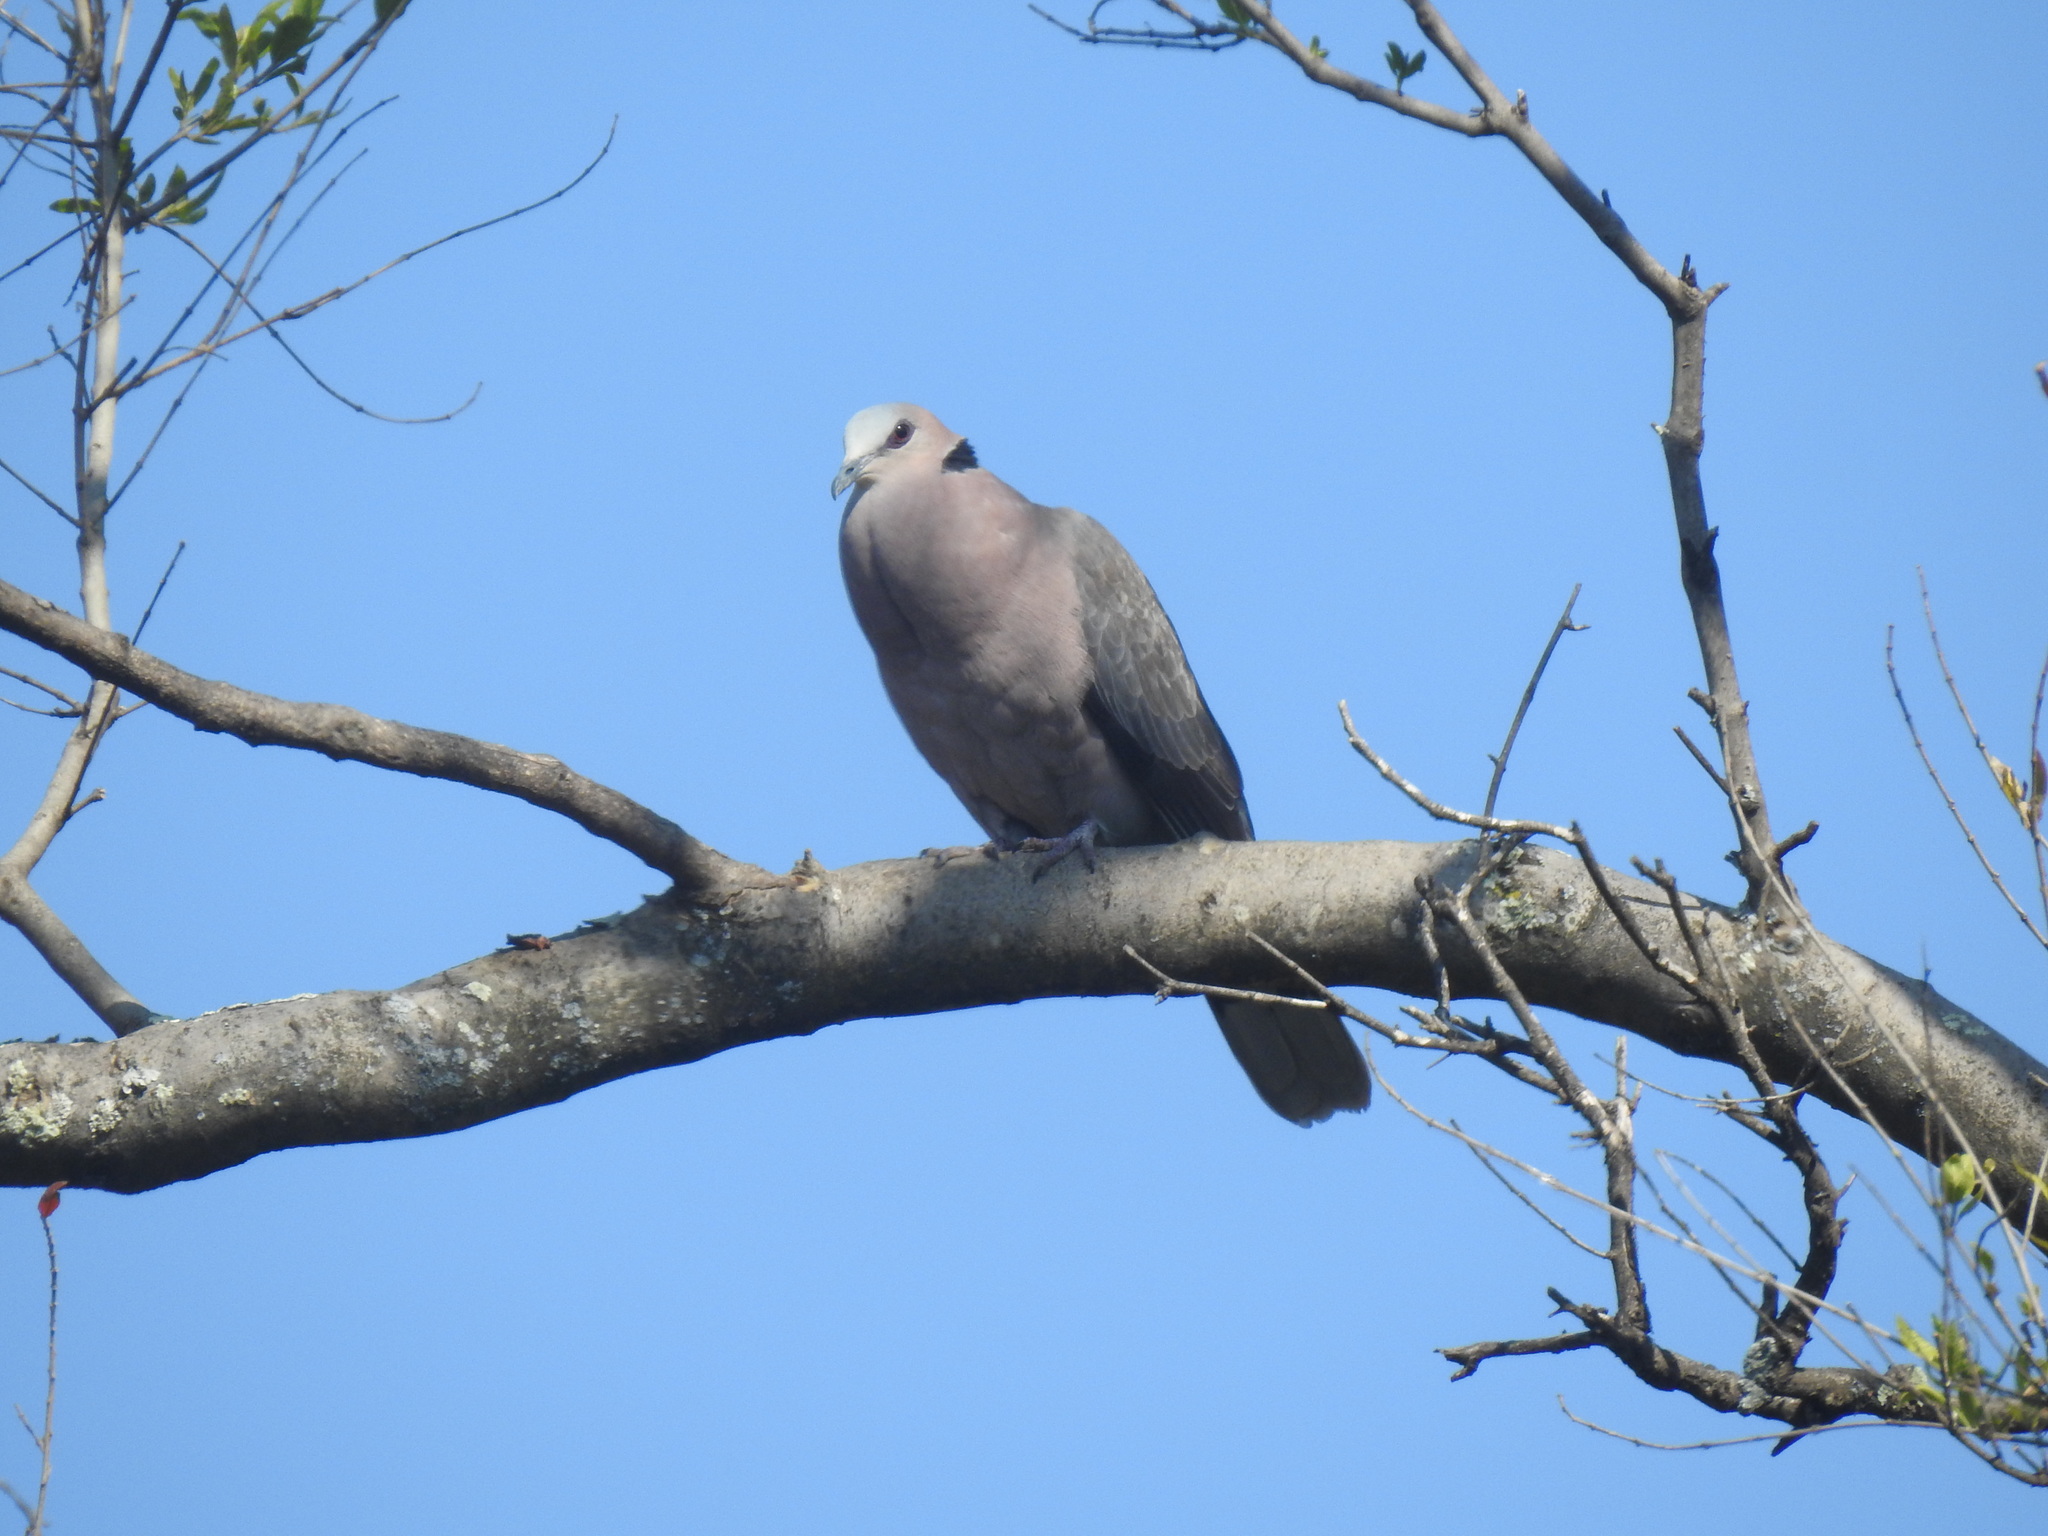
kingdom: Animalia
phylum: Chordata
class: Aves
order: Columbiformes
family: Columbidae
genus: Streptopelia
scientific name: Streptopelia semitorquata
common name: Red-eyed dove
